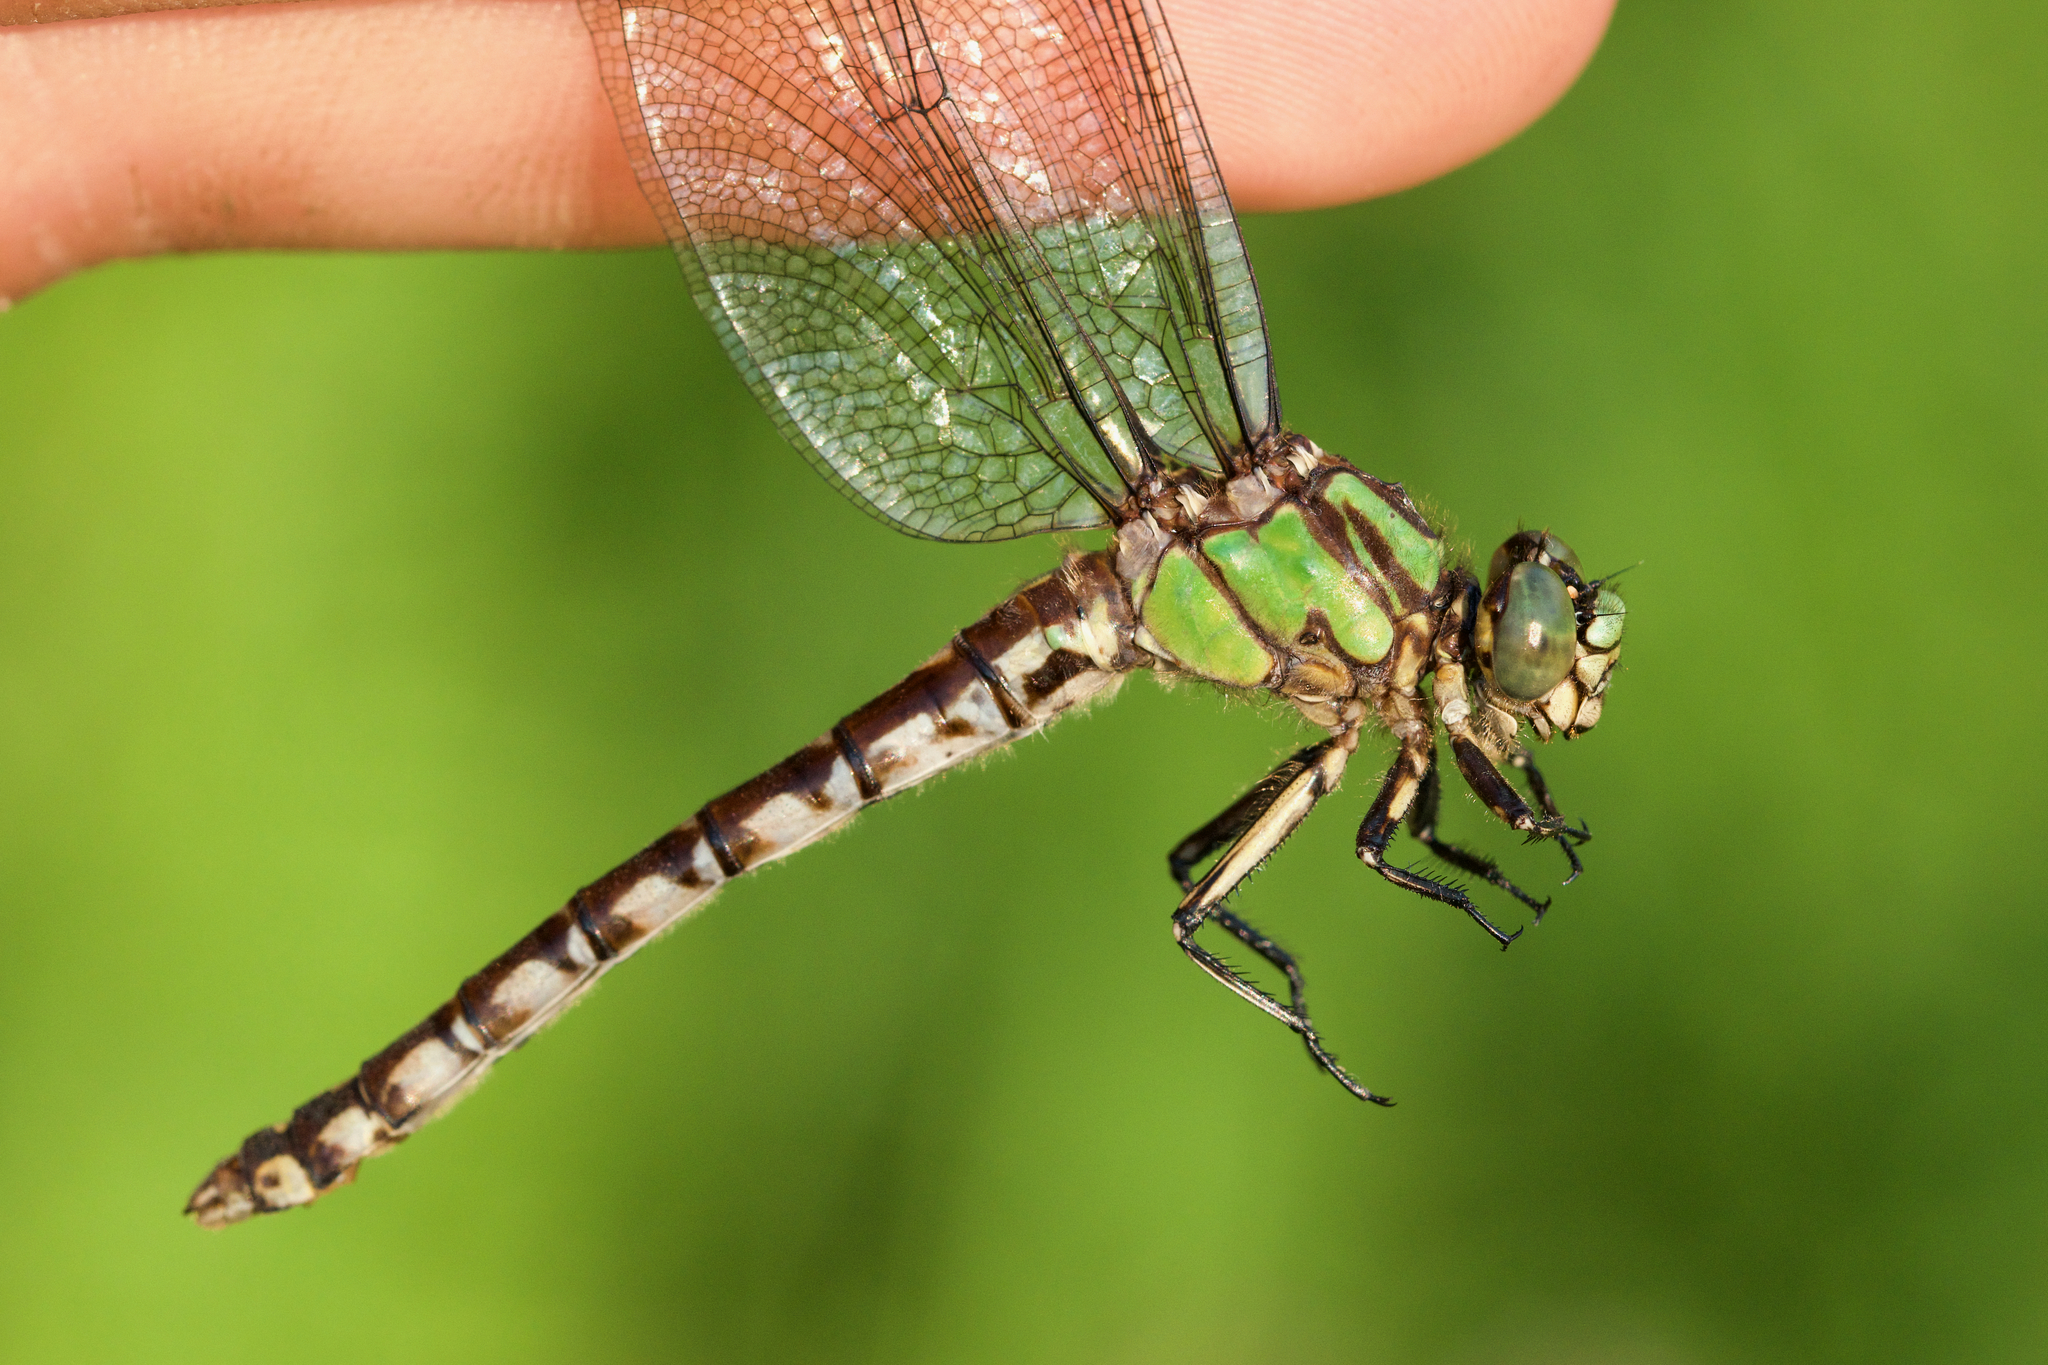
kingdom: Animalia
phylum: Arthropoda
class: Insecta
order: Odonata
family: Gomphidae
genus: Ophiogomphus
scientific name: Ophiogomphus colubrinus
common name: Boreal snaketail
